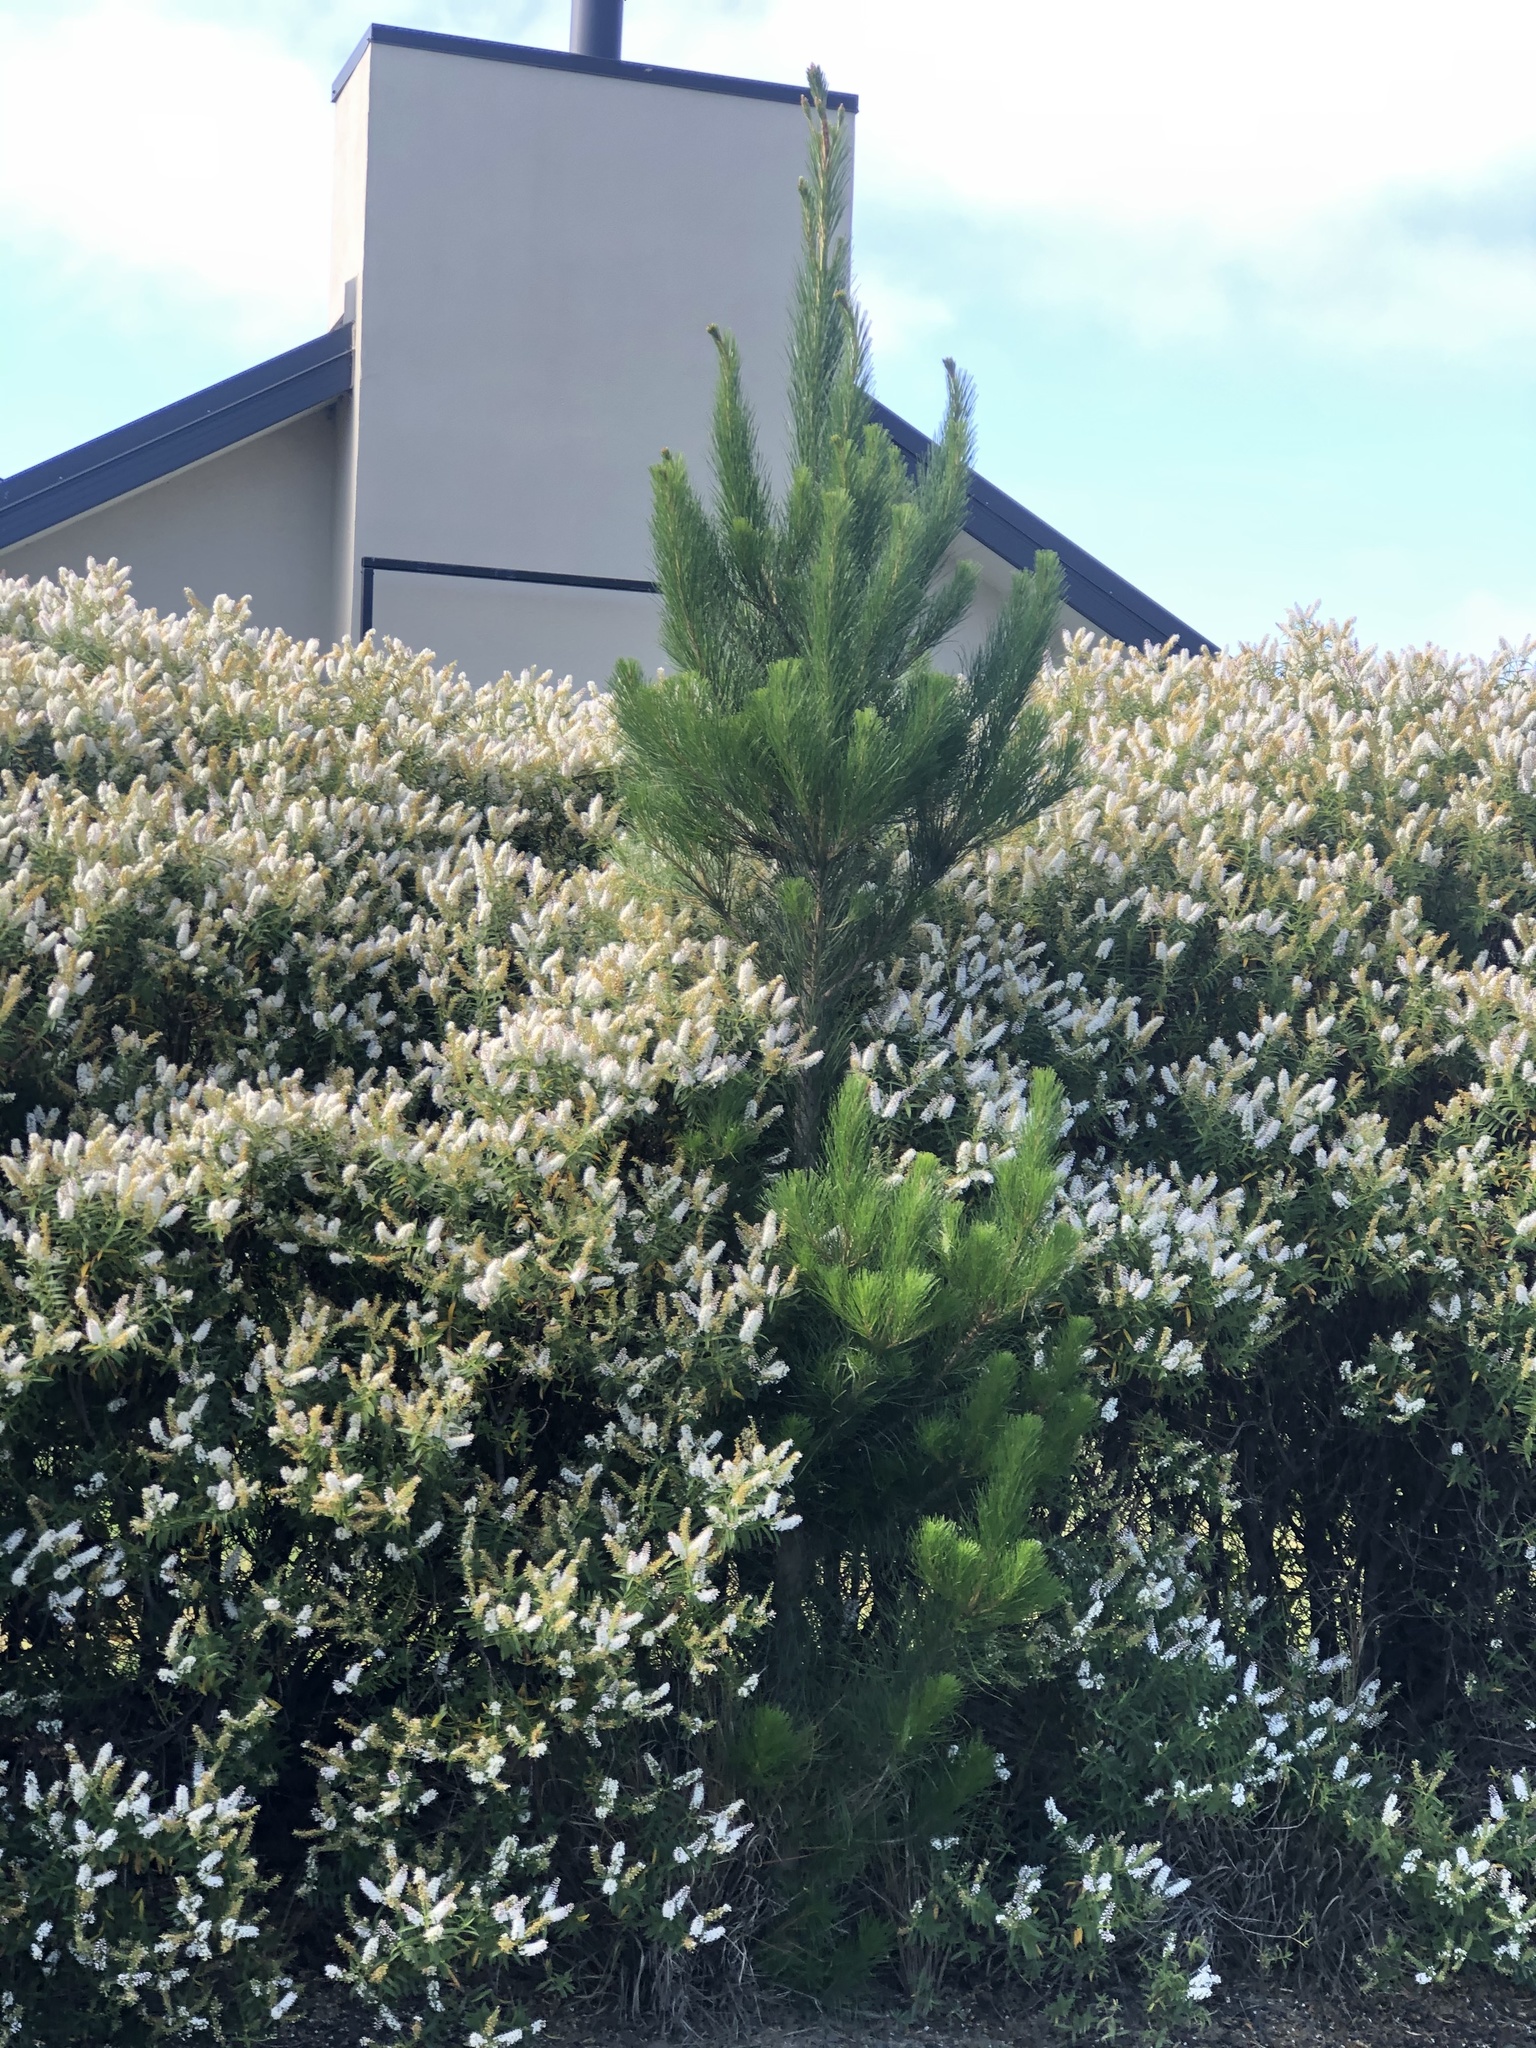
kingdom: Plantae
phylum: Tracheophyta
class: Pinopsida
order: Pinales
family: Pinaceae
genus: Pinus
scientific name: Pinus radiata
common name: Monterey pine
